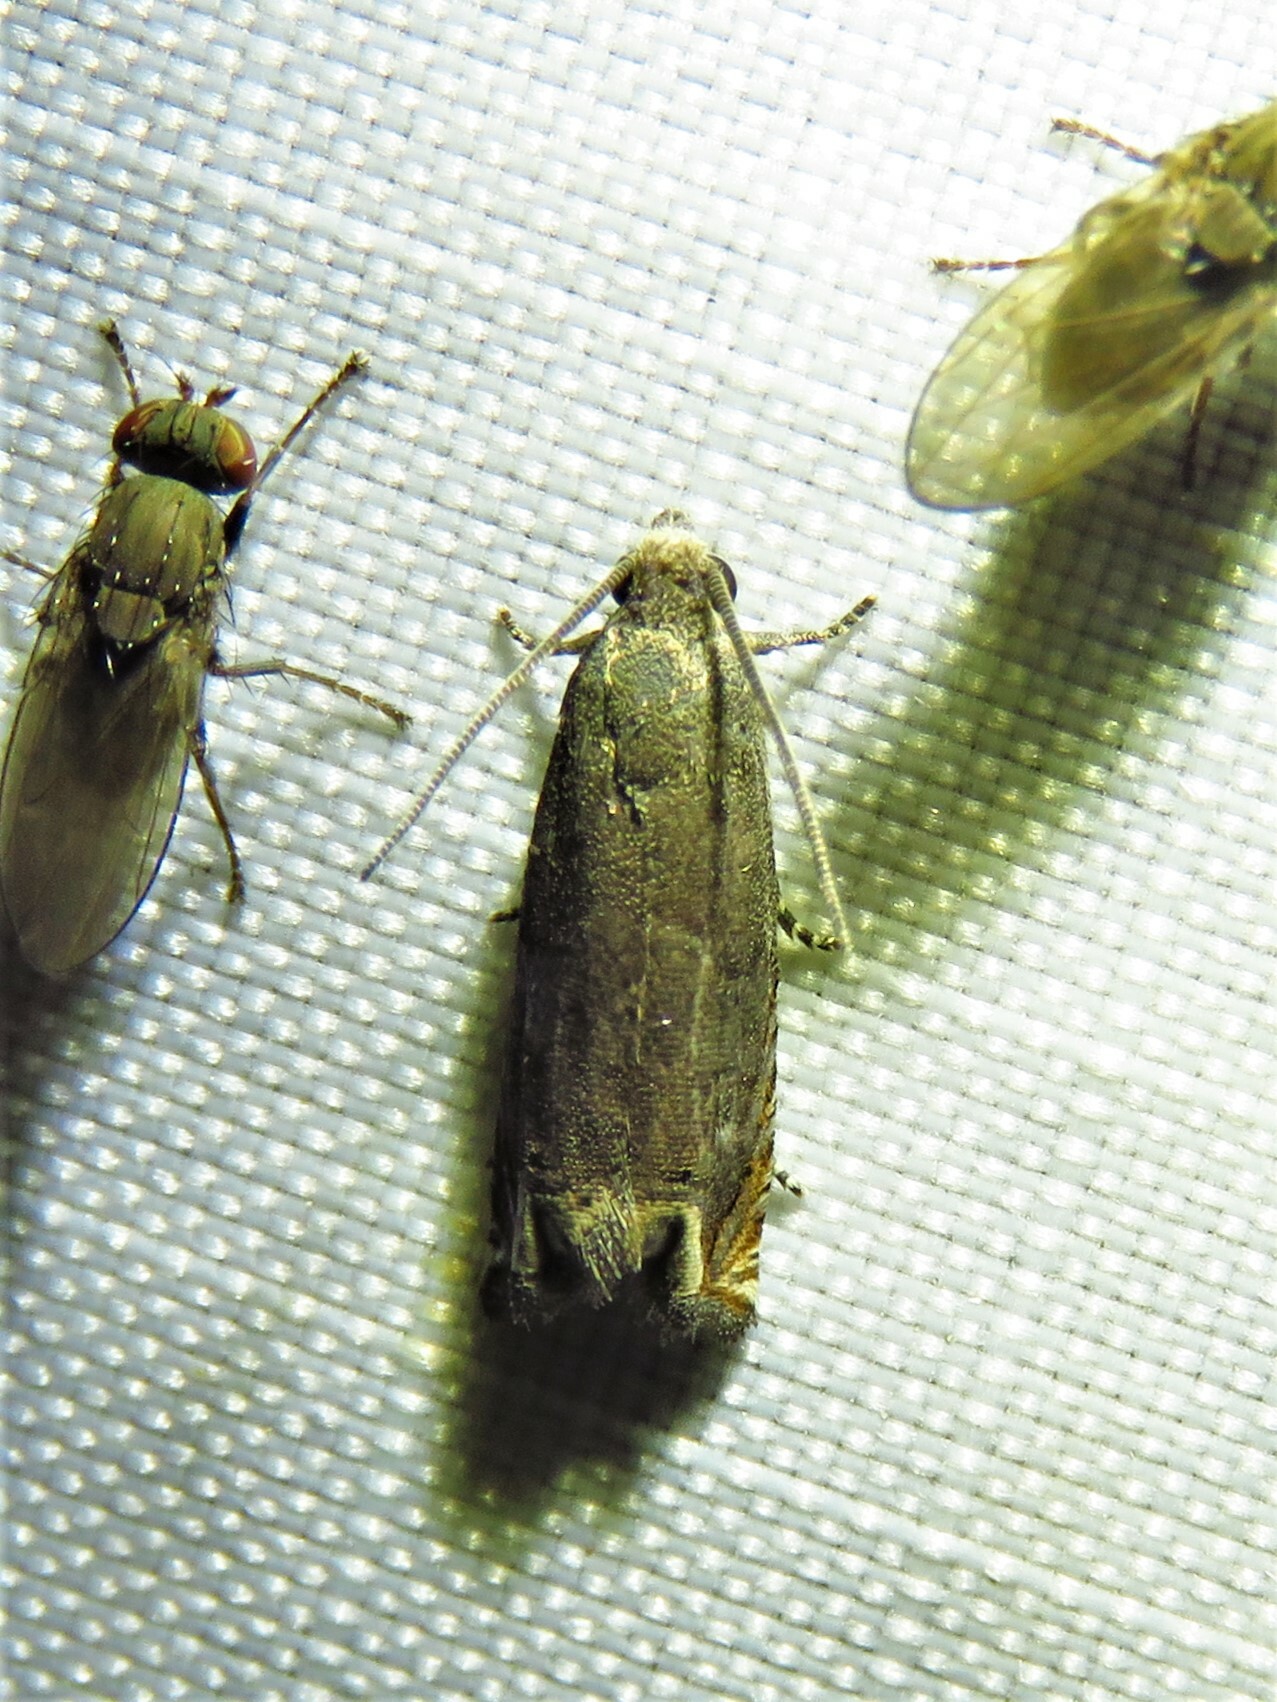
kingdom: Animalia
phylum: Arthropoda
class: Insecta
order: Lepidoptera
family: Tortricidae
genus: Epiblema
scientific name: Epiblema strenuana
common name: Ragweed borer moth
